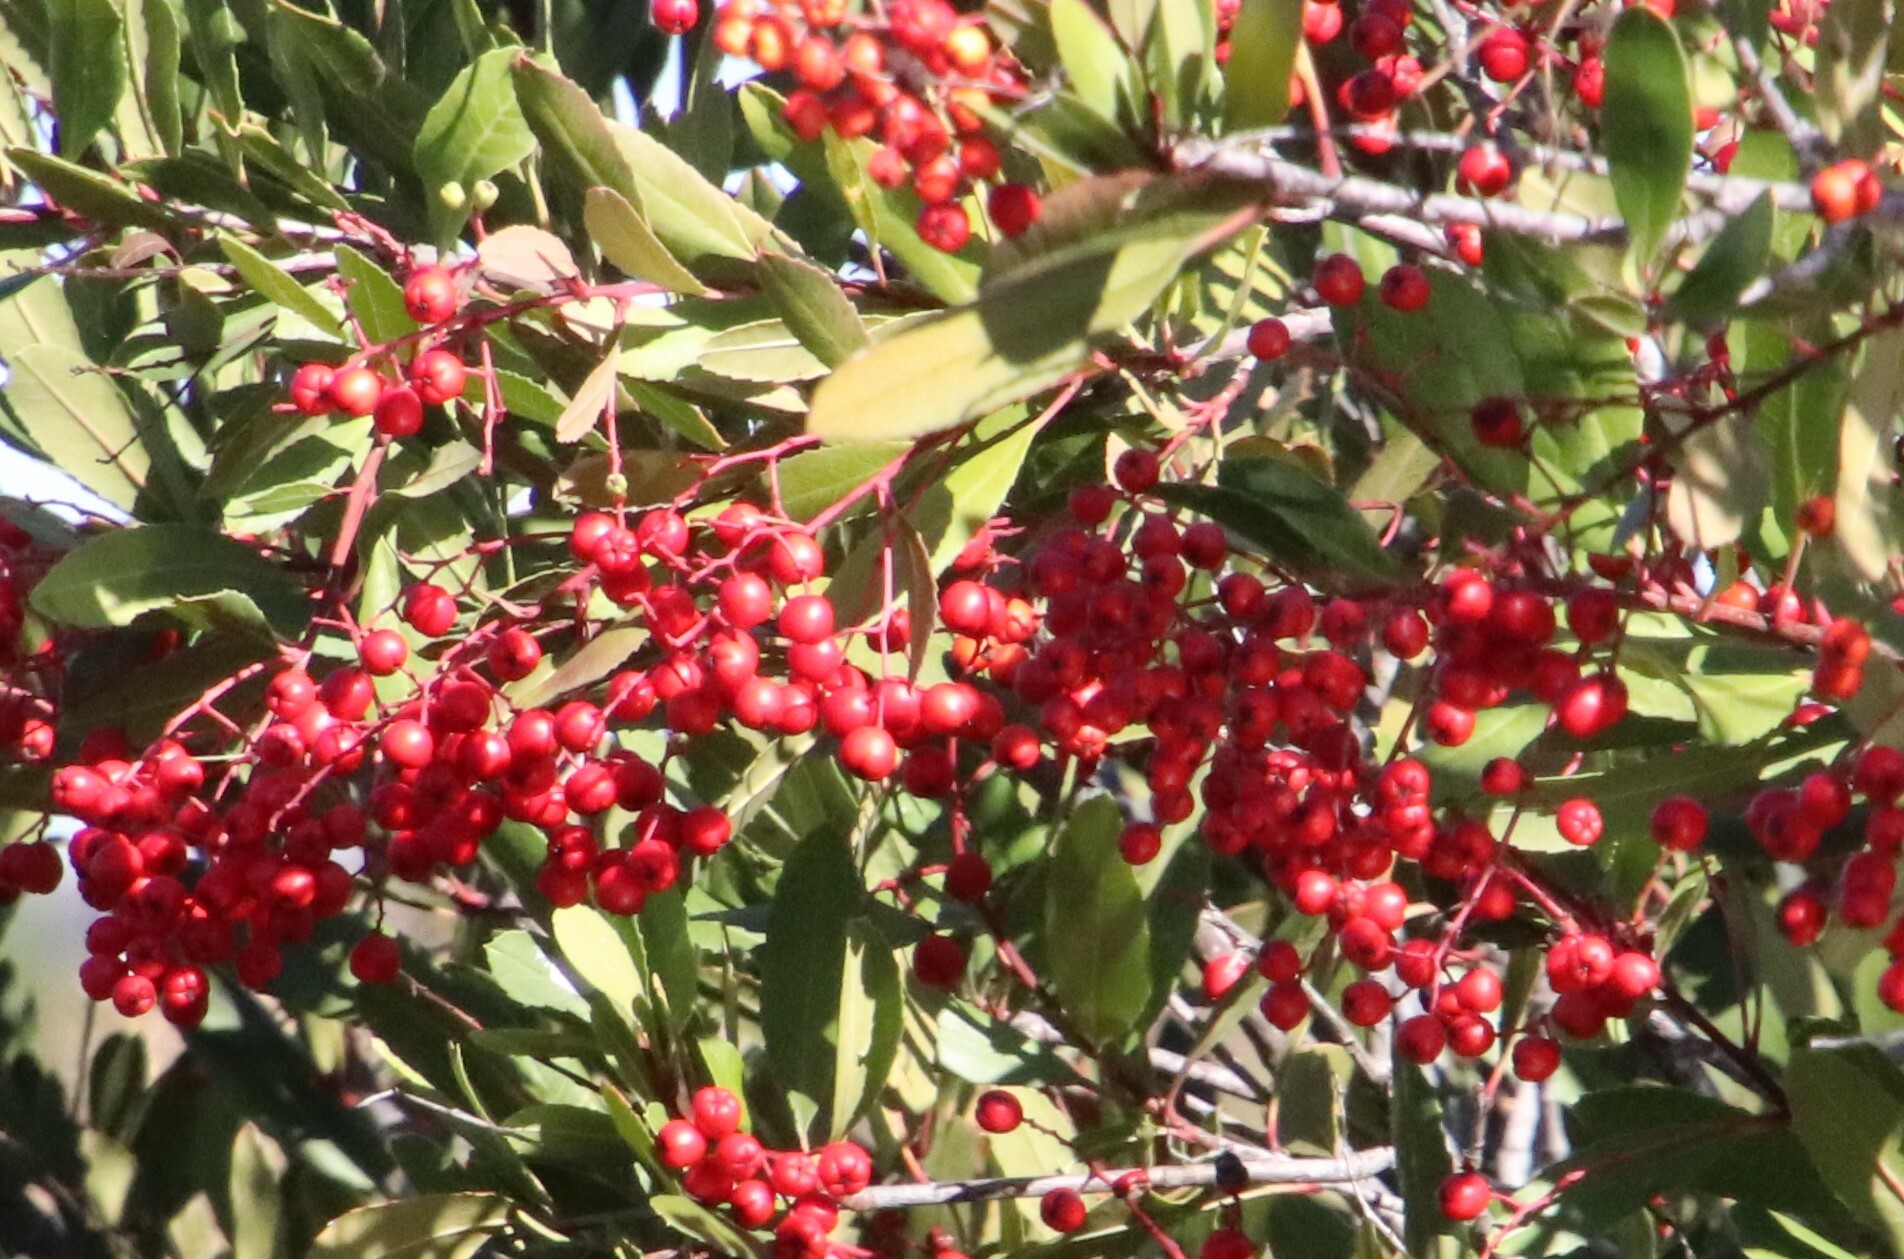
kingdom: Plantae
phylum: Tracheophyta
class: Magnoliopsida
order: Rosales
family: Rosaceae
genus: Heteromeles
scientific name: Heteromeles arbutifolia
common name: California-holly
